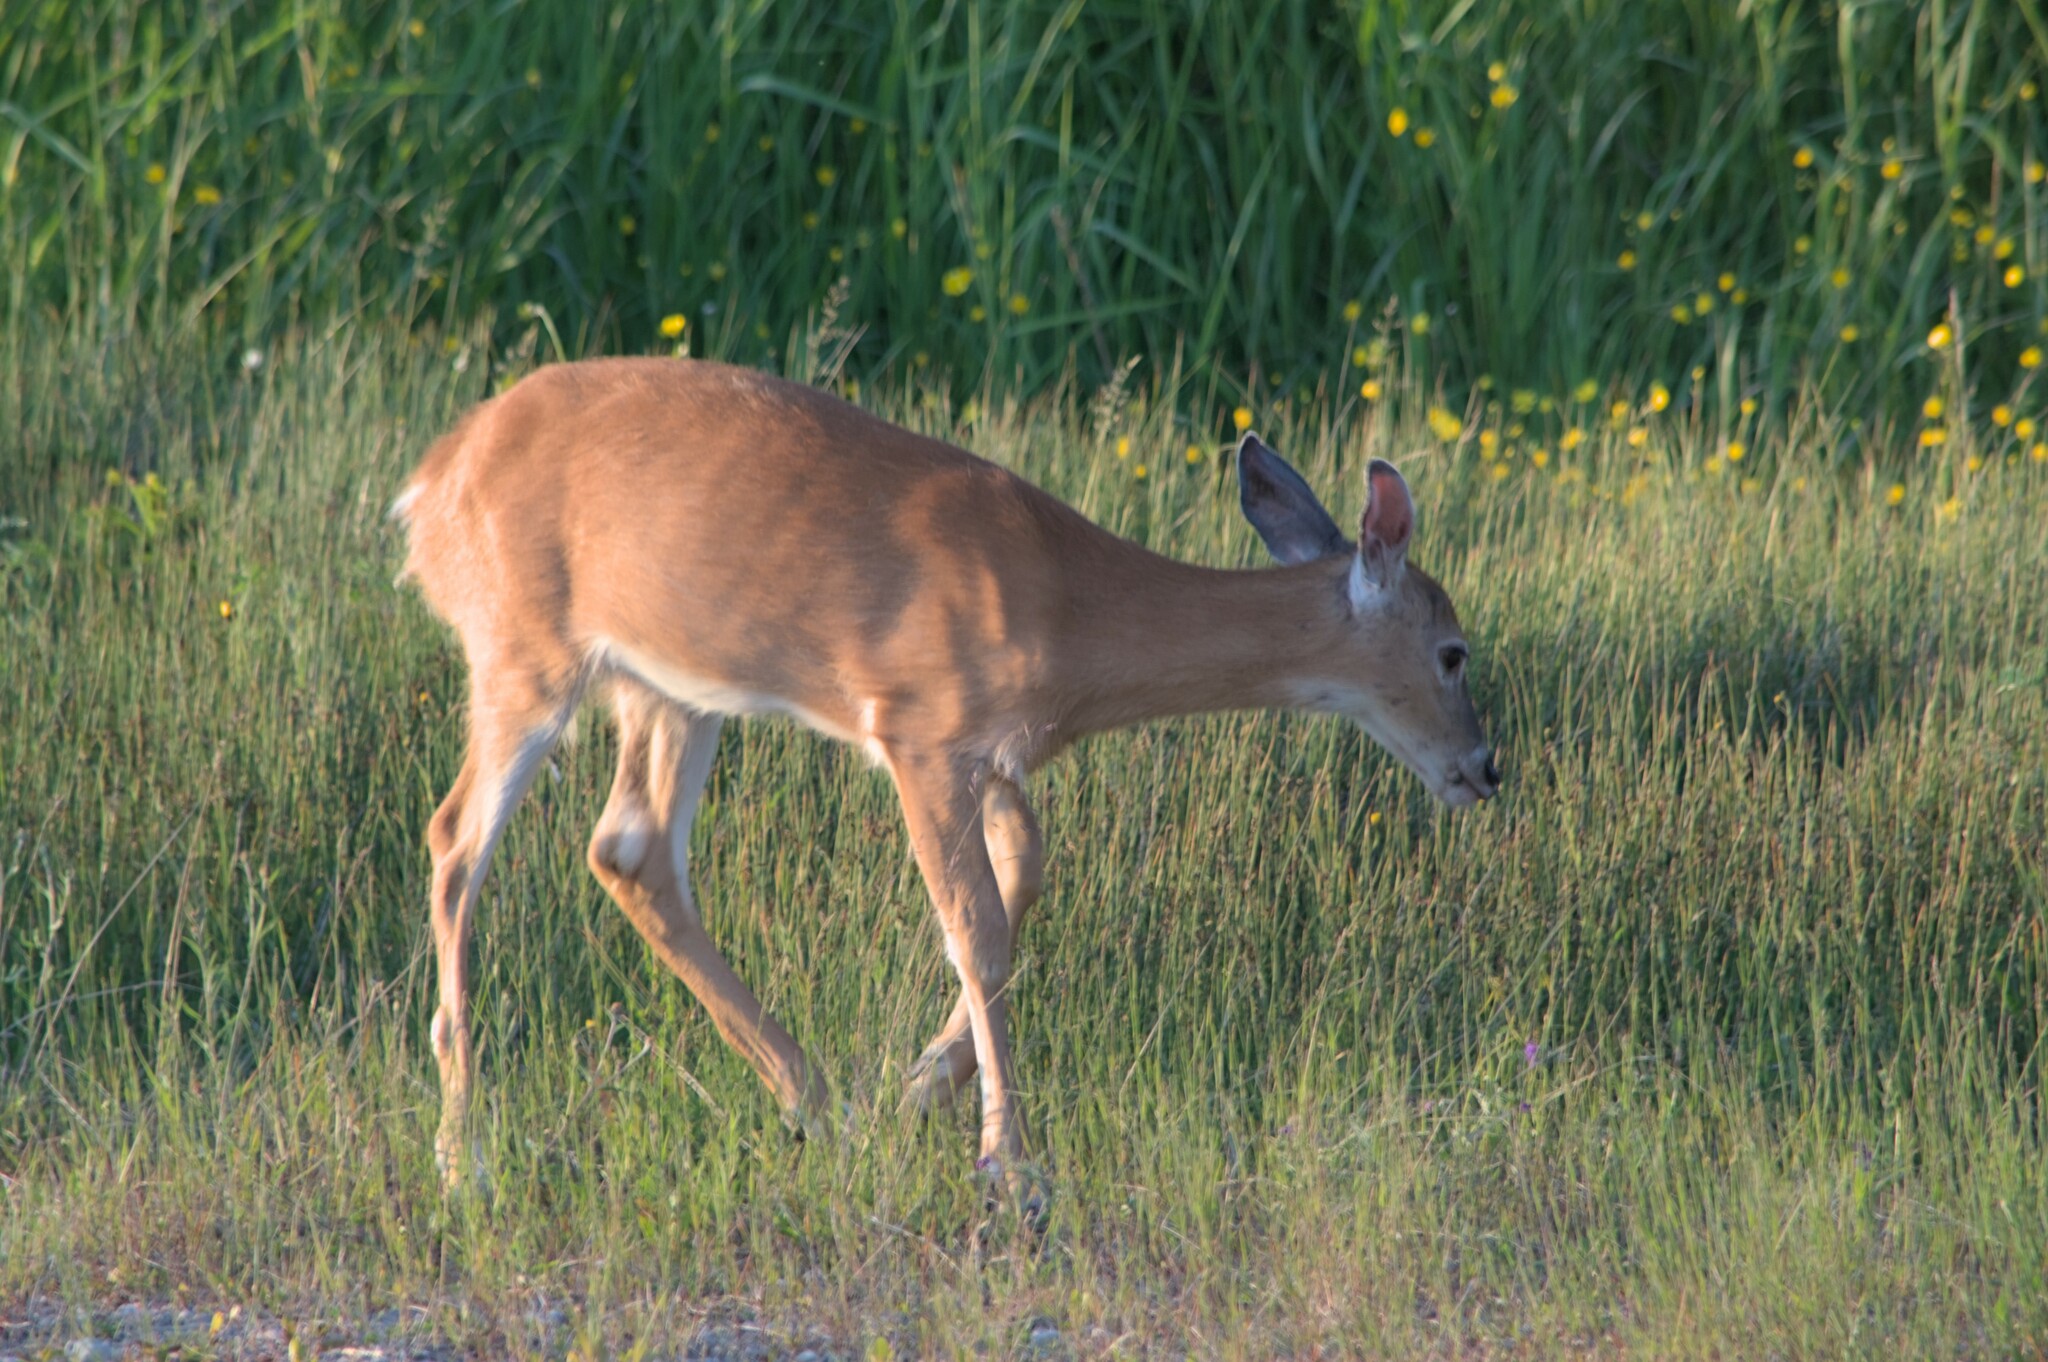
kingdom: Animalia
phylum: Chordata
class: Mammalia
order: Artiodactyla
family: Cervidae
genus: Odocoileus
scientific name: Odocoileus virginianus
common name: White-tailed deer
